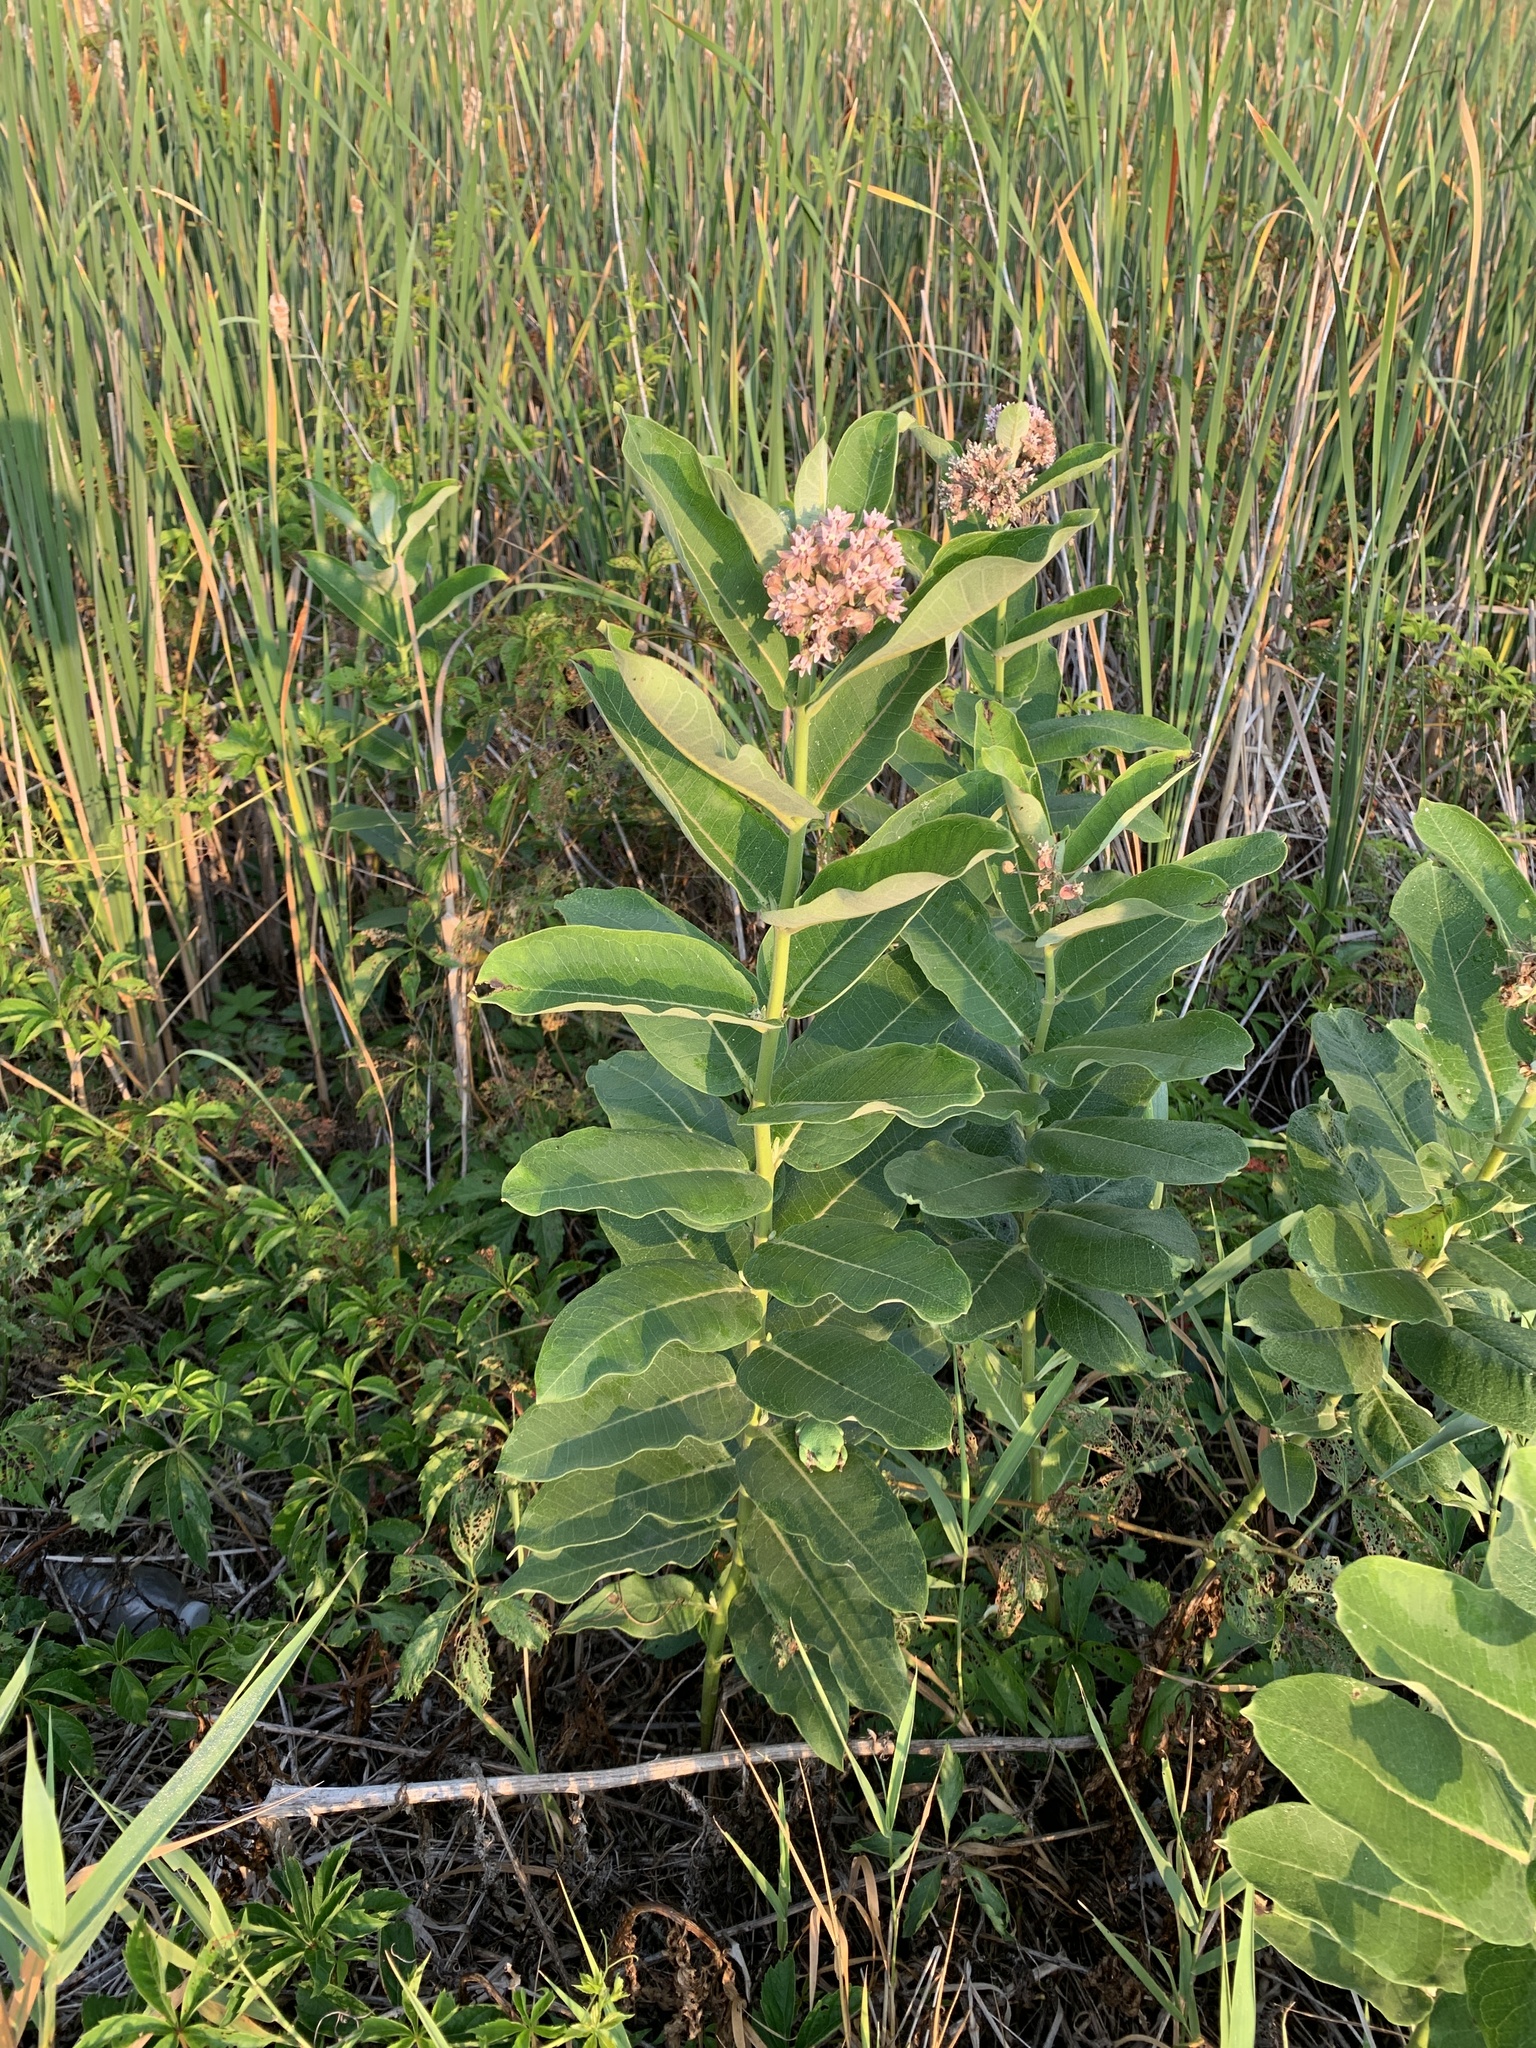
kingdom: Plantae
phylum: Tracheophyta
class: Magnoliopsida
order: Gentianales
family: Apocynaceae
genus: Asclepias
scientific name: Asclepias syriaca
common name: Common milkweed
